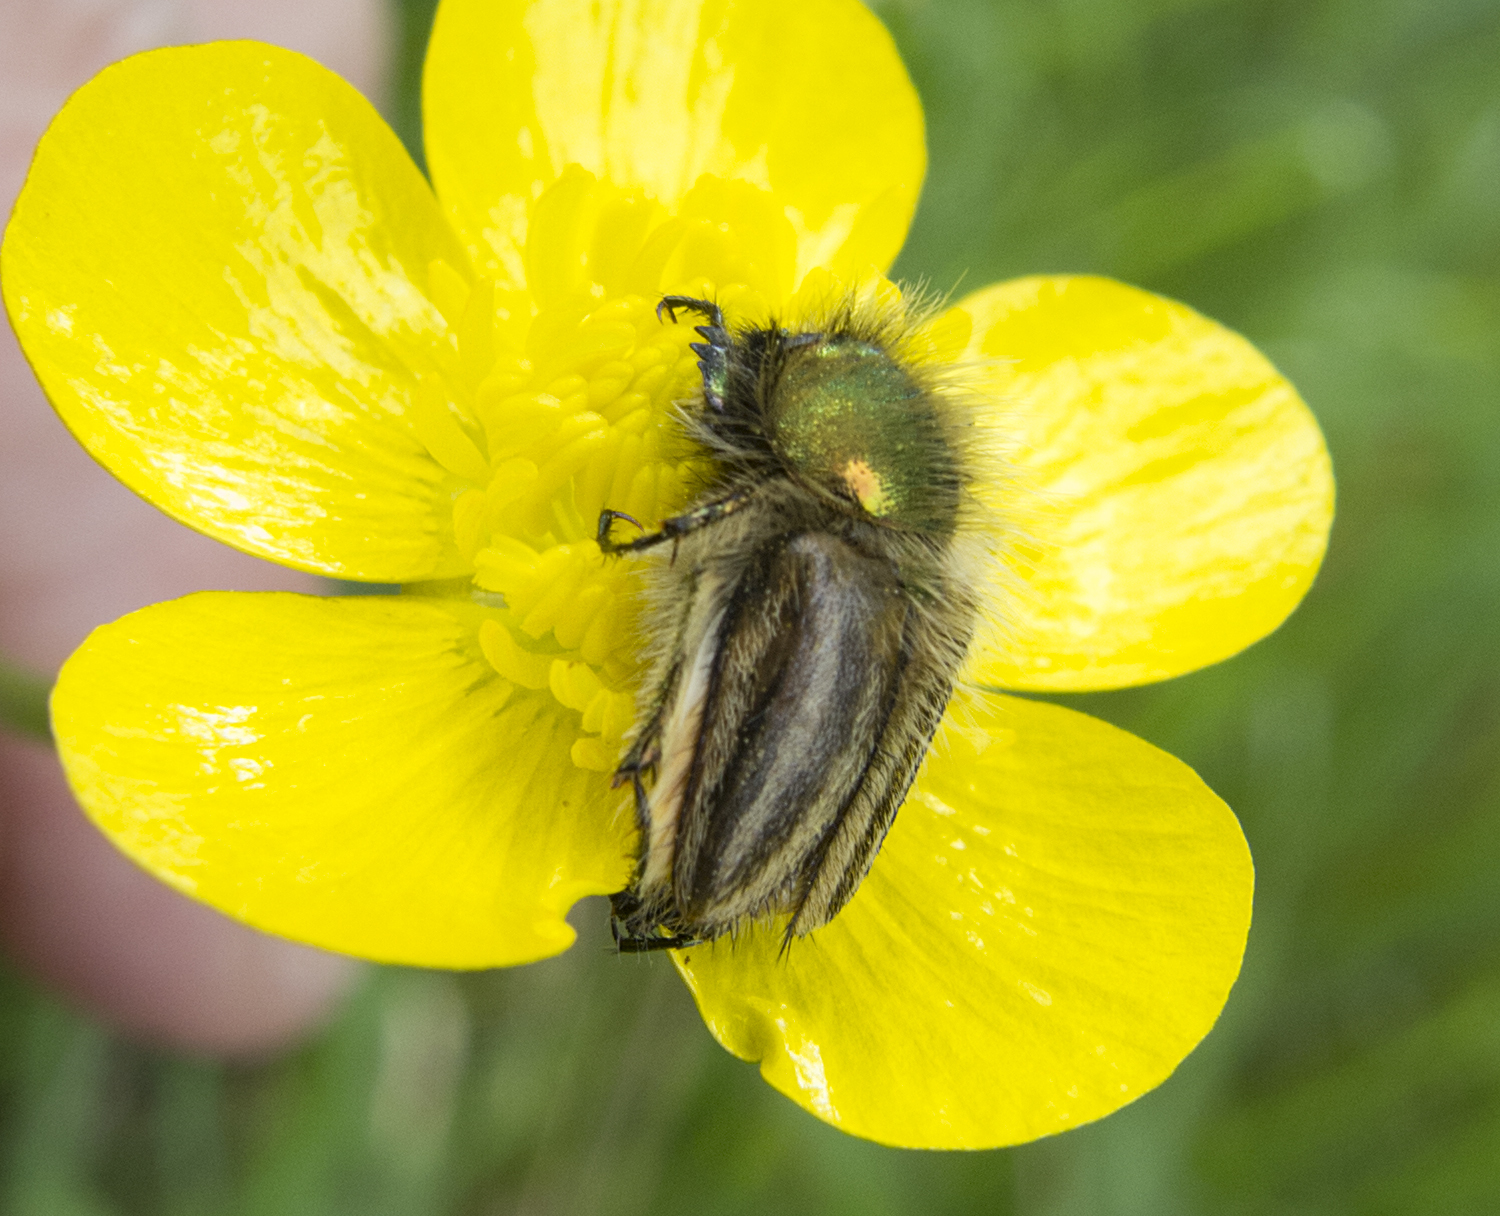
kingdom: Animalia
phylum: Arthropoda
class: Insecta
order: Coleoptera
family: Glaphyridae
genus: Eulasia
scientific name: Eulasia pareyssei
